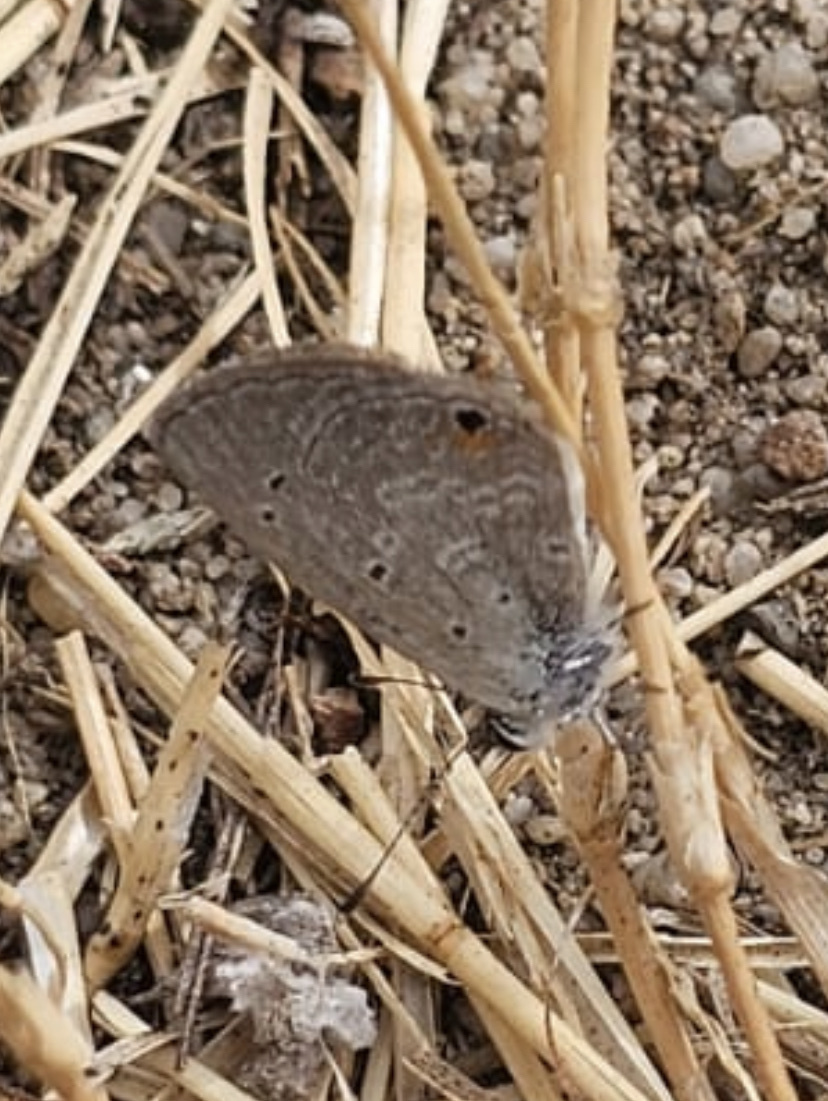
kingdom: Animalia
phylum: Arthropoda
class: Insecta
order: Lepidoptera
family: Lycaenidae
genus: Eicochrysops
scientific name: Eicochrysops messapus
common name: Cupreous blue
